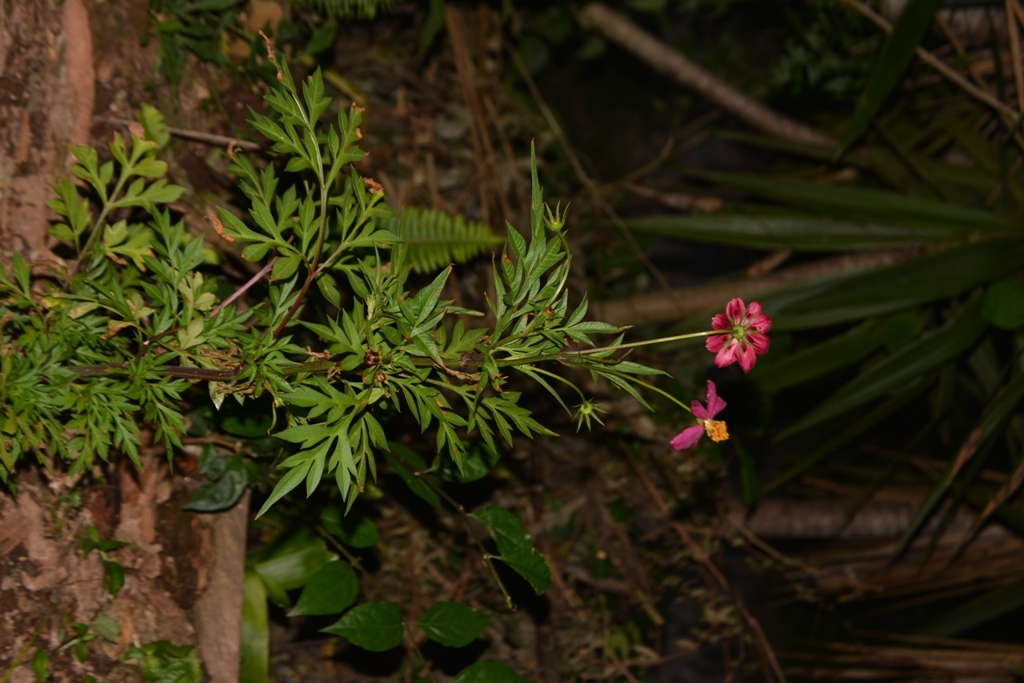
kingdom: Plantae
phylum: Tracheophyta
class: Magnoliopsida
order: Asterales
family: Asteraceae
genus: Cosmos
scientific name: Cosmos caudatus
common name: Wild cosmos
